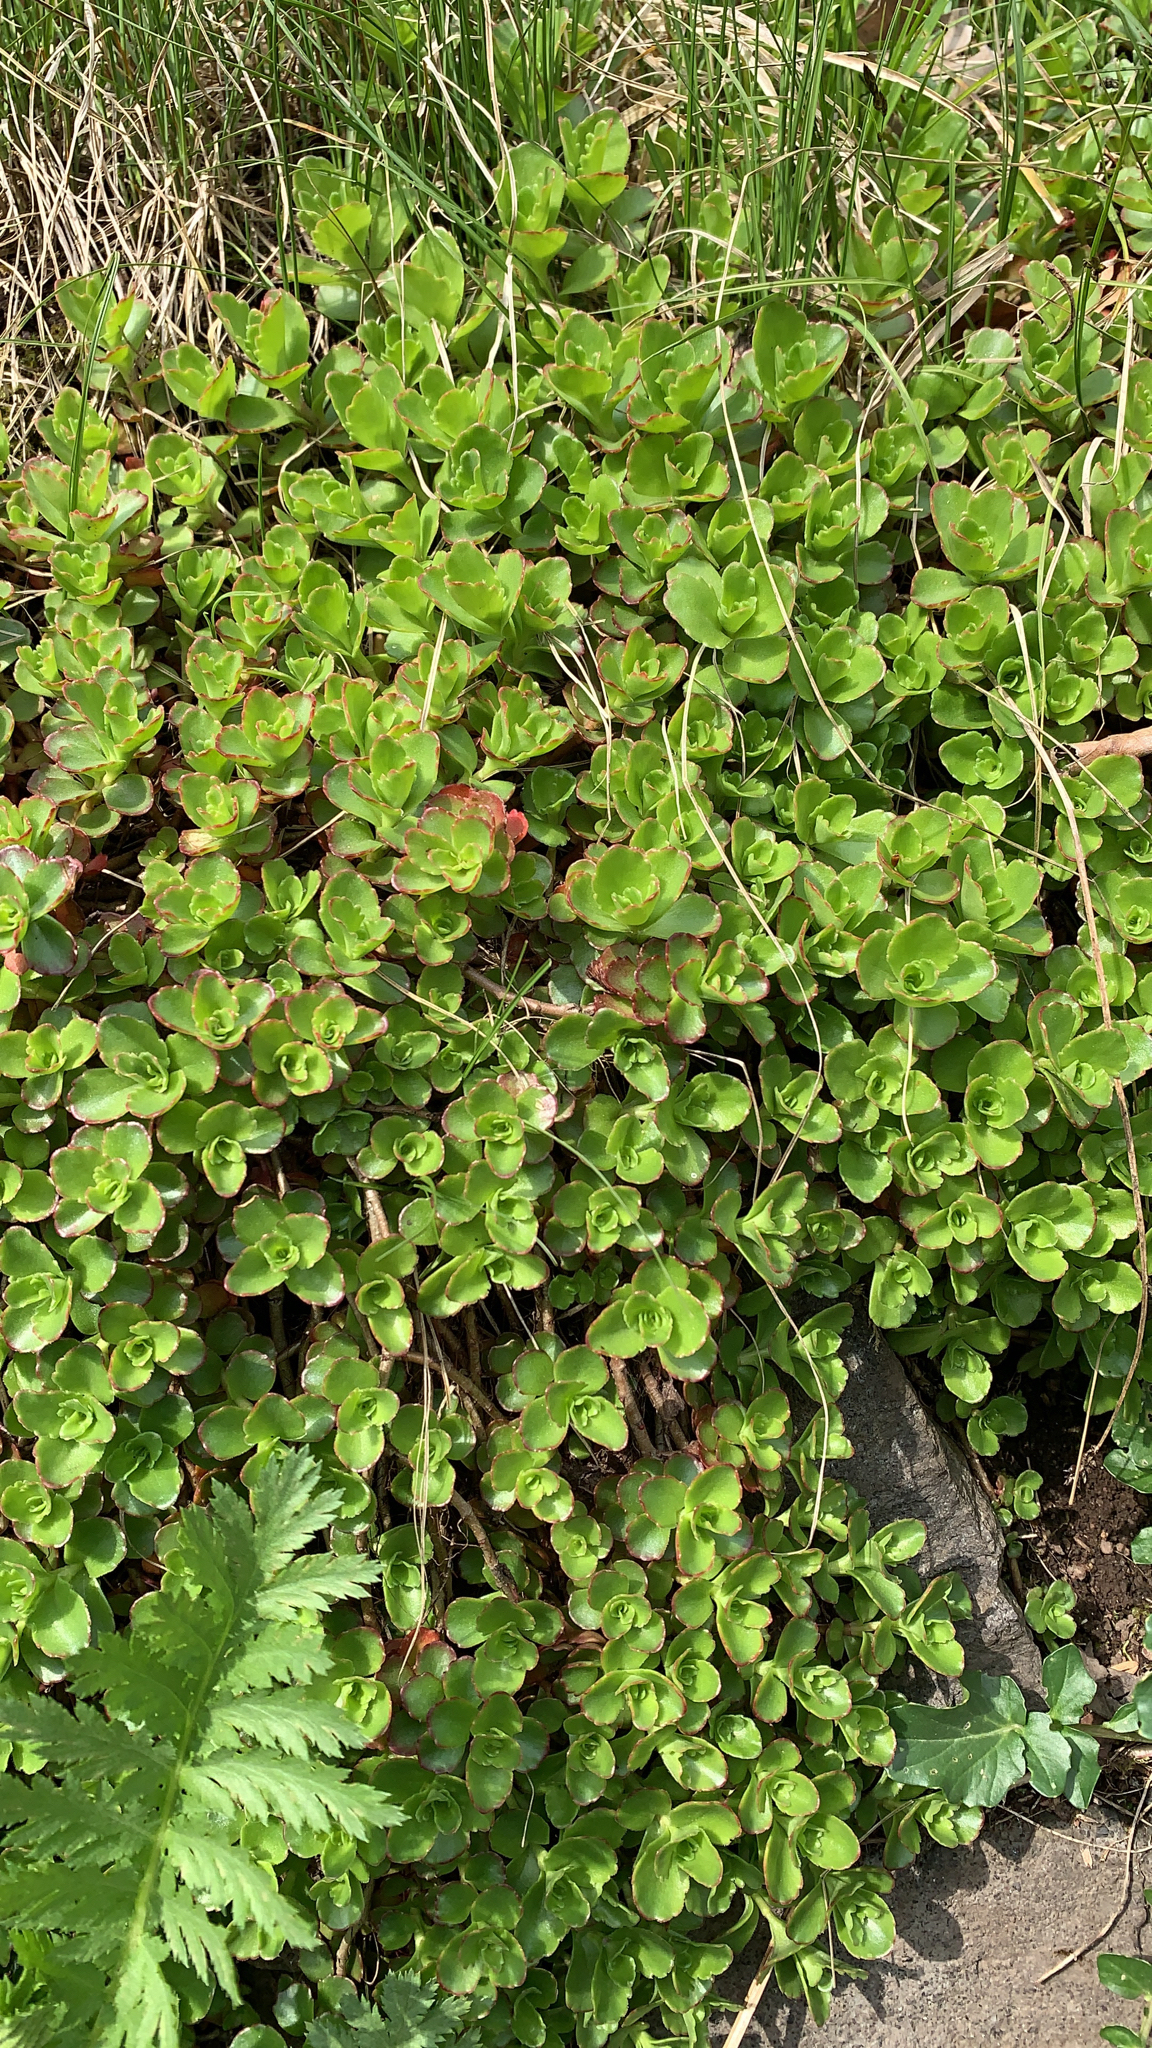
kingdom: Plantae
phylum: Tracheophyta
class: Magnoliopsida
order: Saxifragales
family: Crassulaceae
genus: Phedimus
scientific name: Phedimus spurius
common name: Caucasian stonecrop
